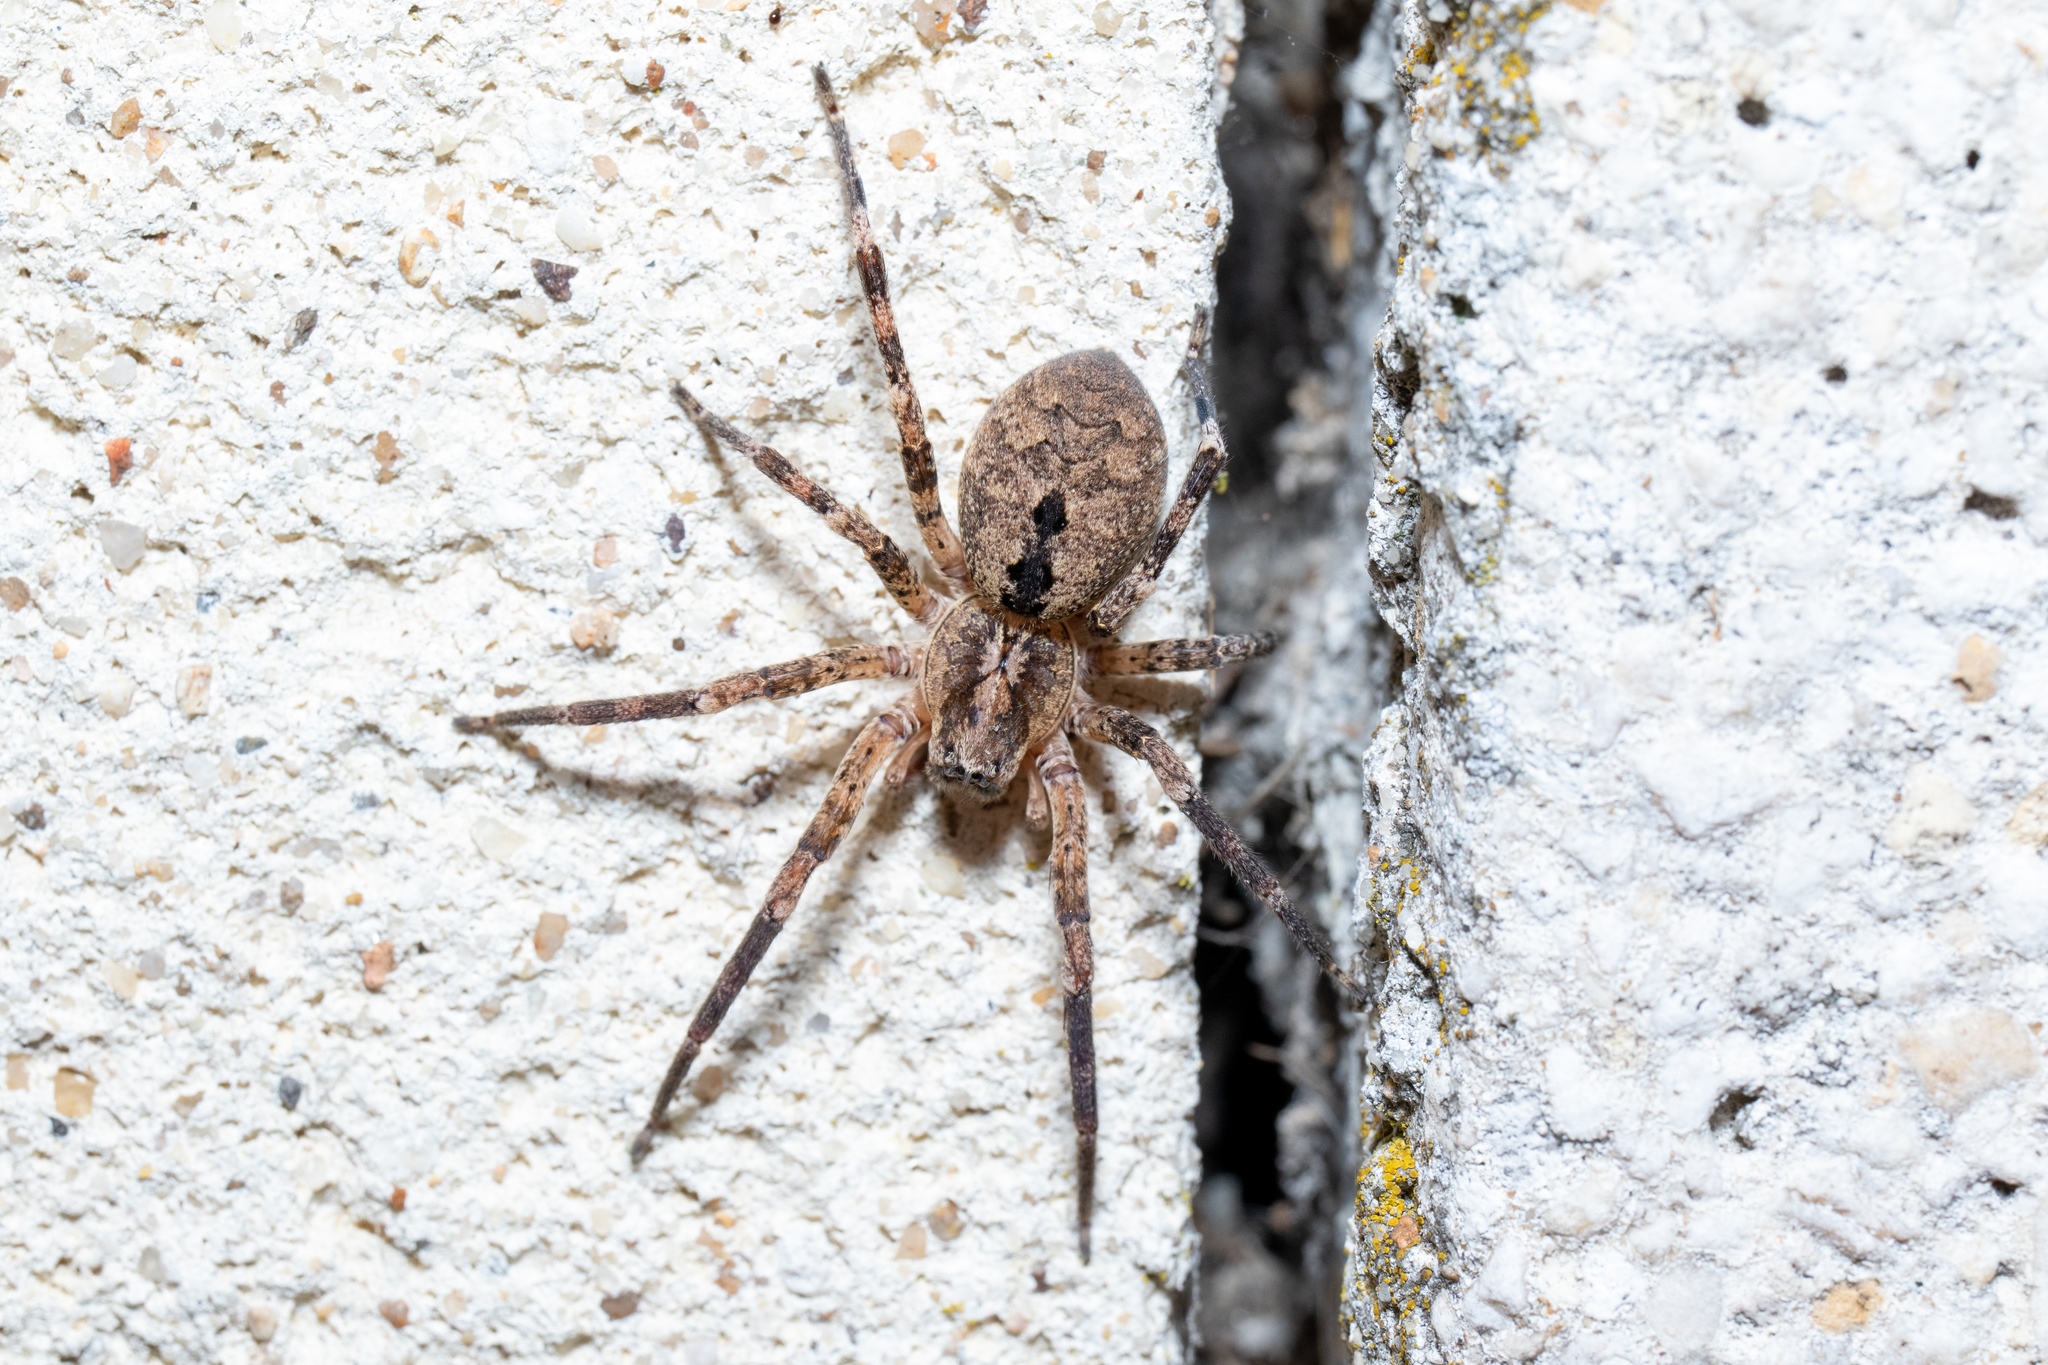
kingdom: Animalia
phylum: Arthropoda
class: Arachnida
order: Araneae
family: Zoropsidae
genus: Zoropsis
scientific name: Zoropsis spinimana
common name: Zoropsid spider
